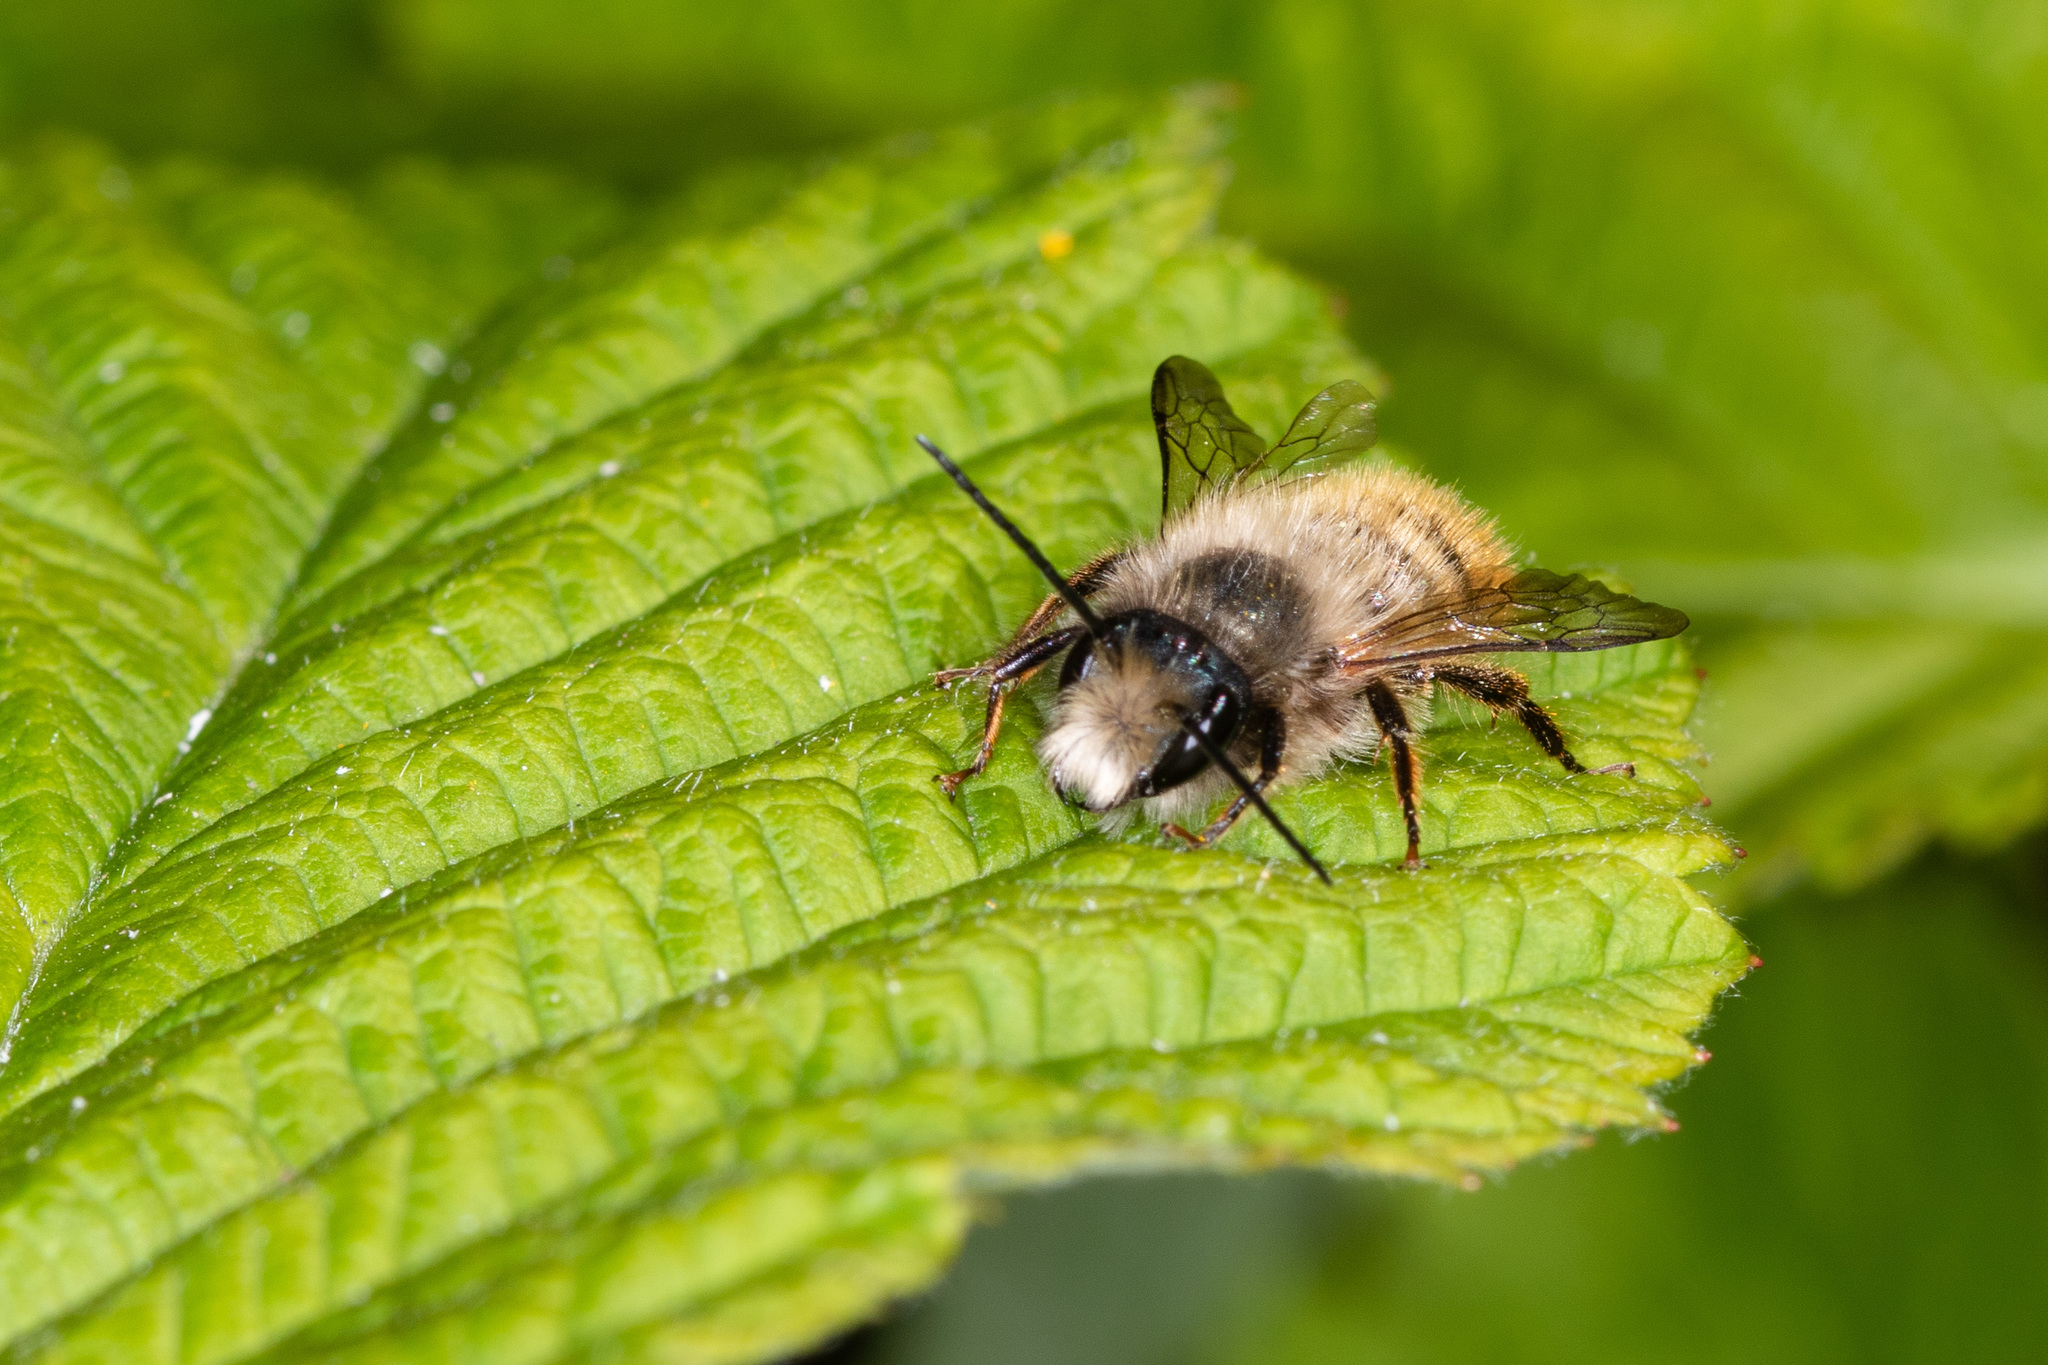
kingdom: Animalia
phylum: Arthropoda
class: Insecta
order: Hymenoptera
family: Megachilidae
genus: Osmia
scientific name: Osmia bicornis
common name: Red mason bee
